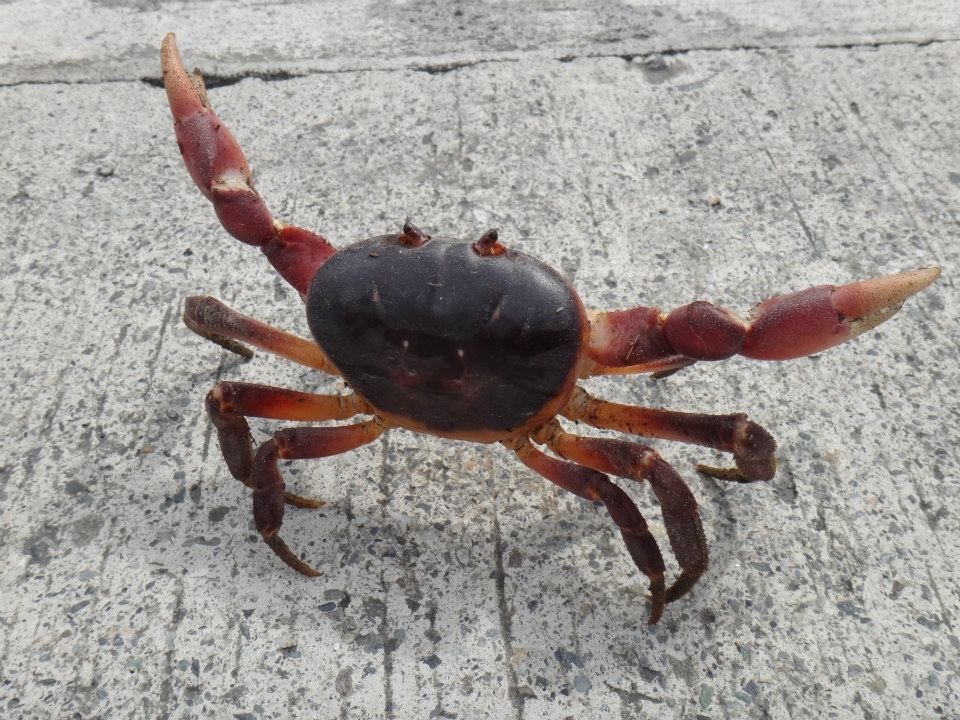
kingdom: Animalia
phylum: Arthropoda
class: Malacostraca
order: Decapoda
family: Gecarcinidae
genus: Gecarcoidea
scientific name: Gecarcoidea lalandii
